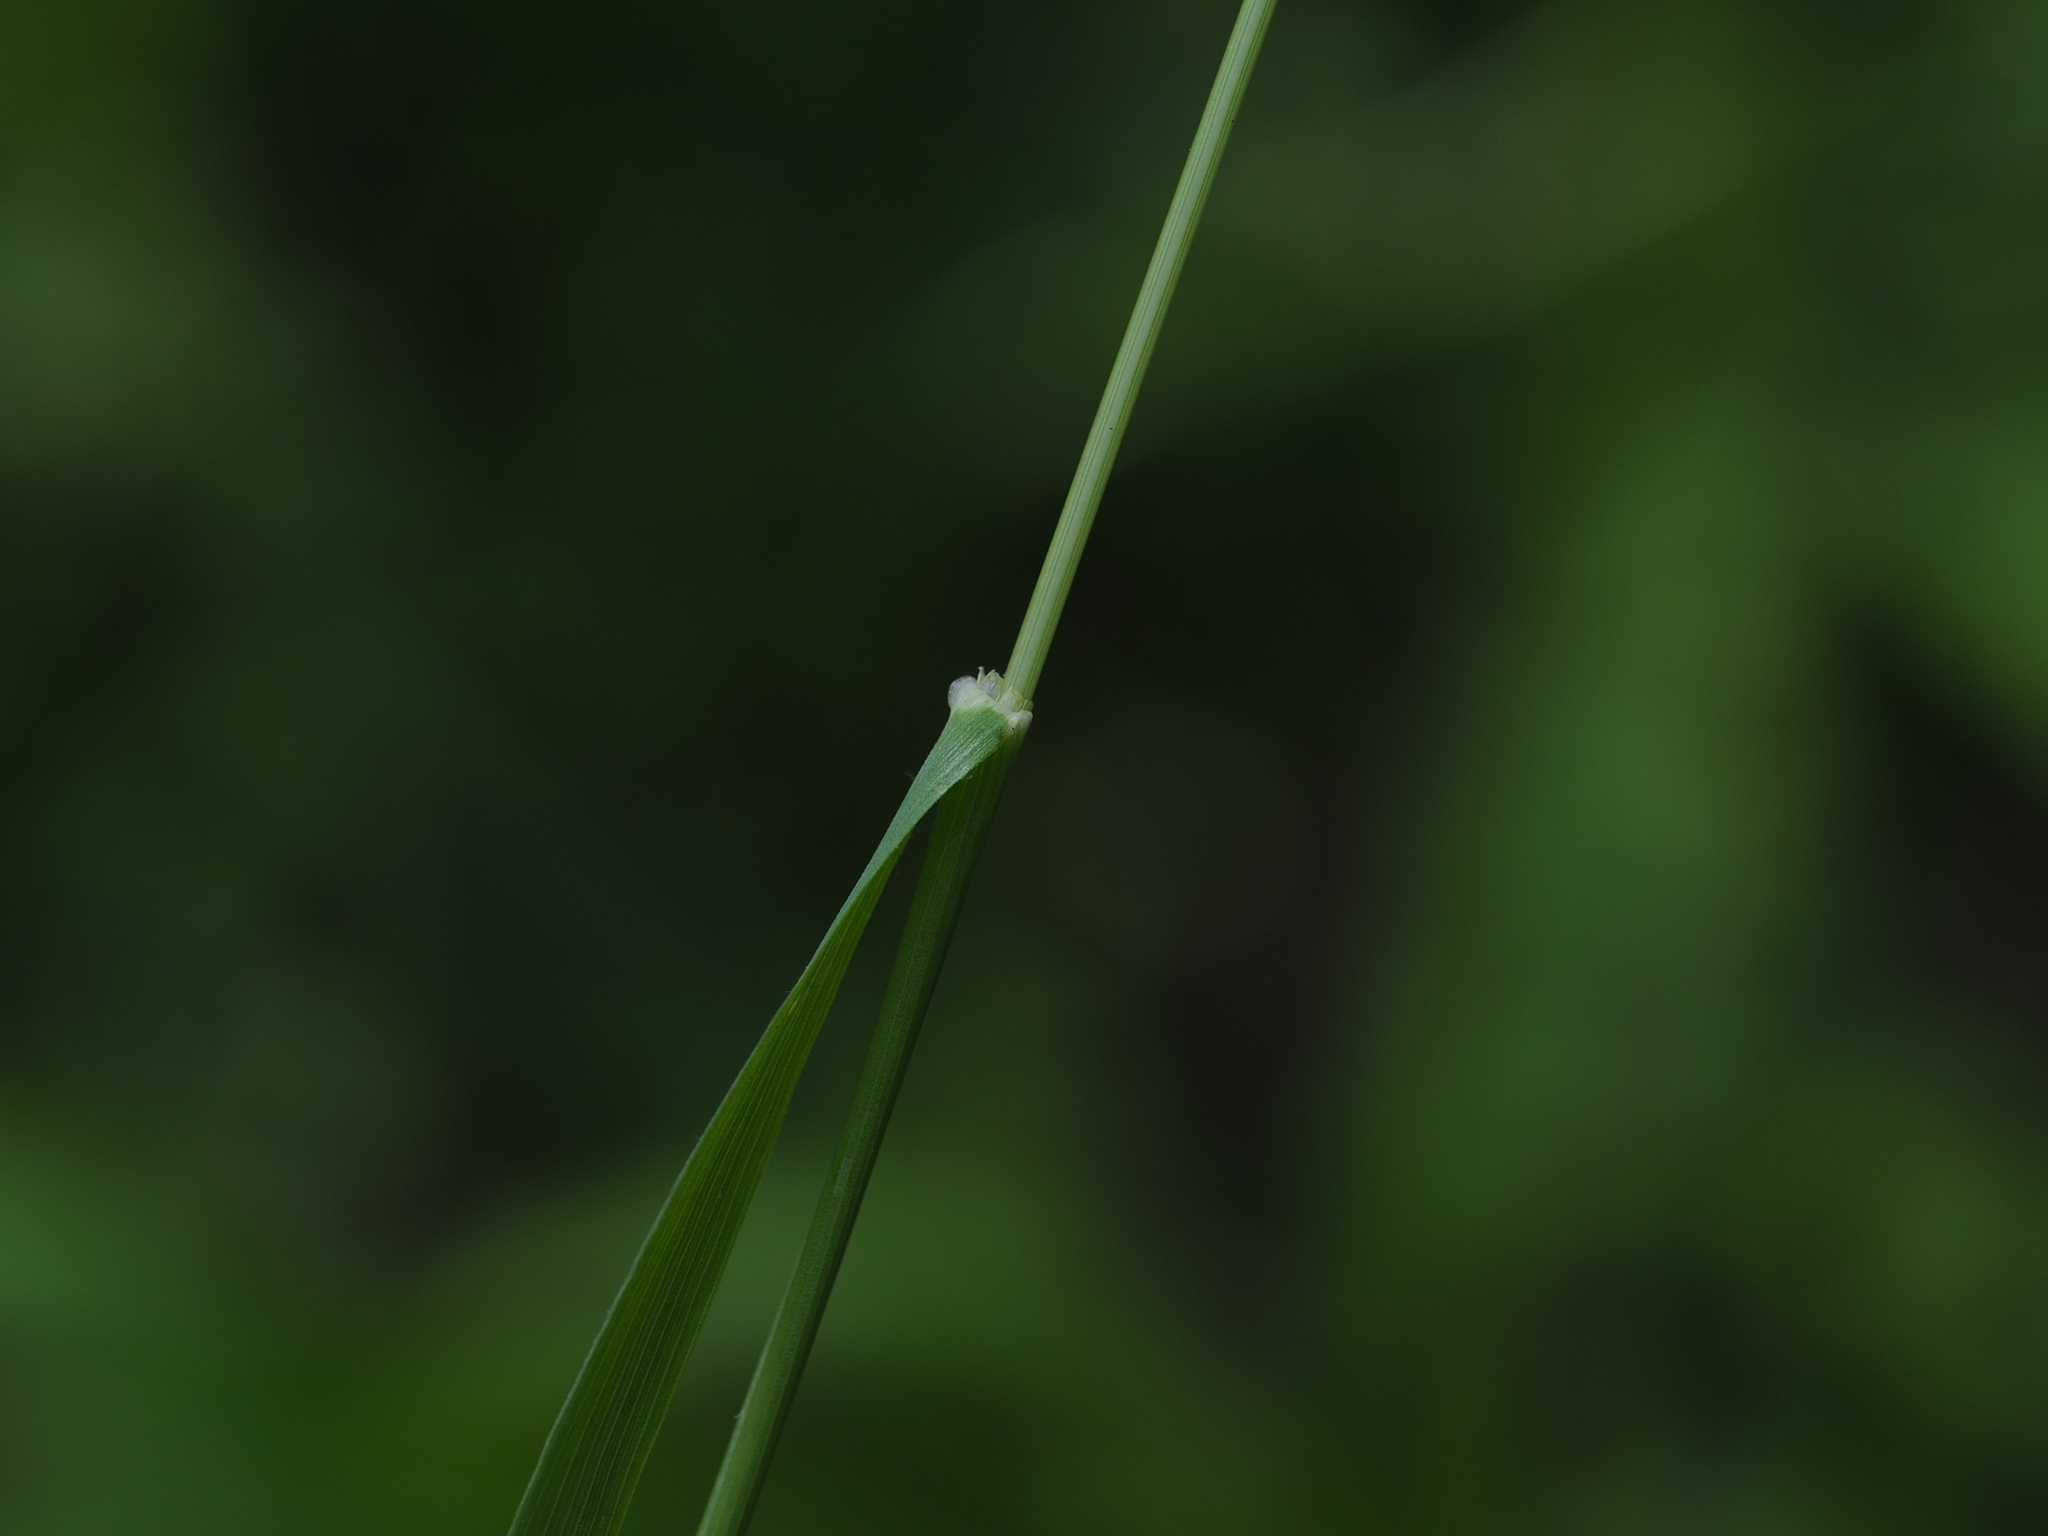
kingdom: Plantae
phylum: Tracheophyta
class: Liliopsida
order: Poales
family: Poaceae
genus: Arrhenatherum
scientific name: Arrhenatherum elatius
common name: Tall oatgrass
